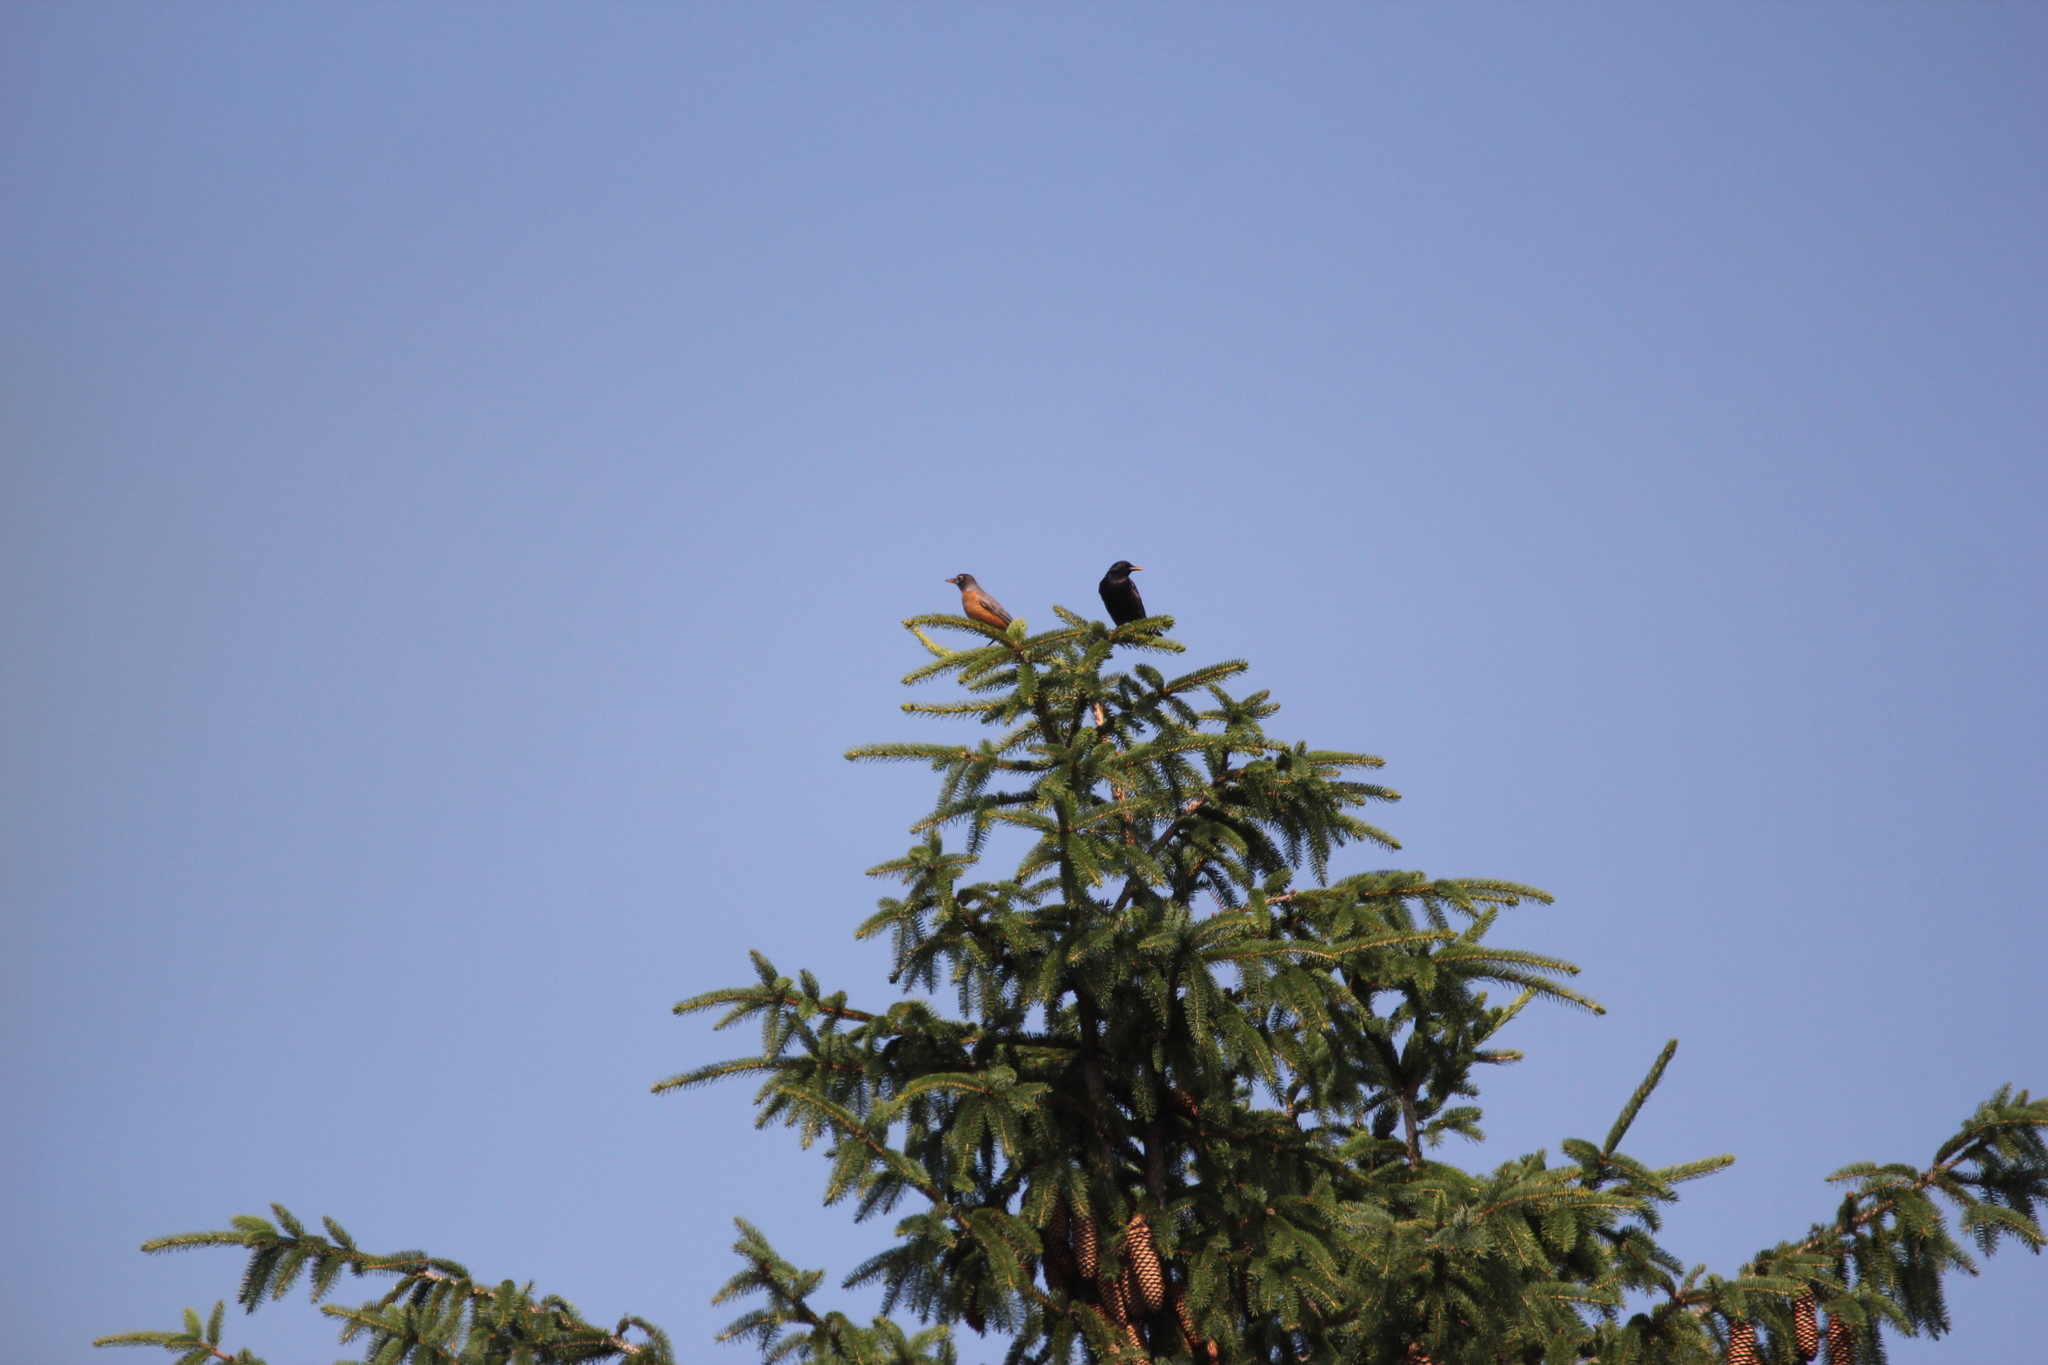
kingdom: Animalia
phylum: Chordata
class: Aves
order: Passeriformes
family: Sturnidae
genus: Sturnus
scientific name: Sturnus vulgaris
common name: Common starling
